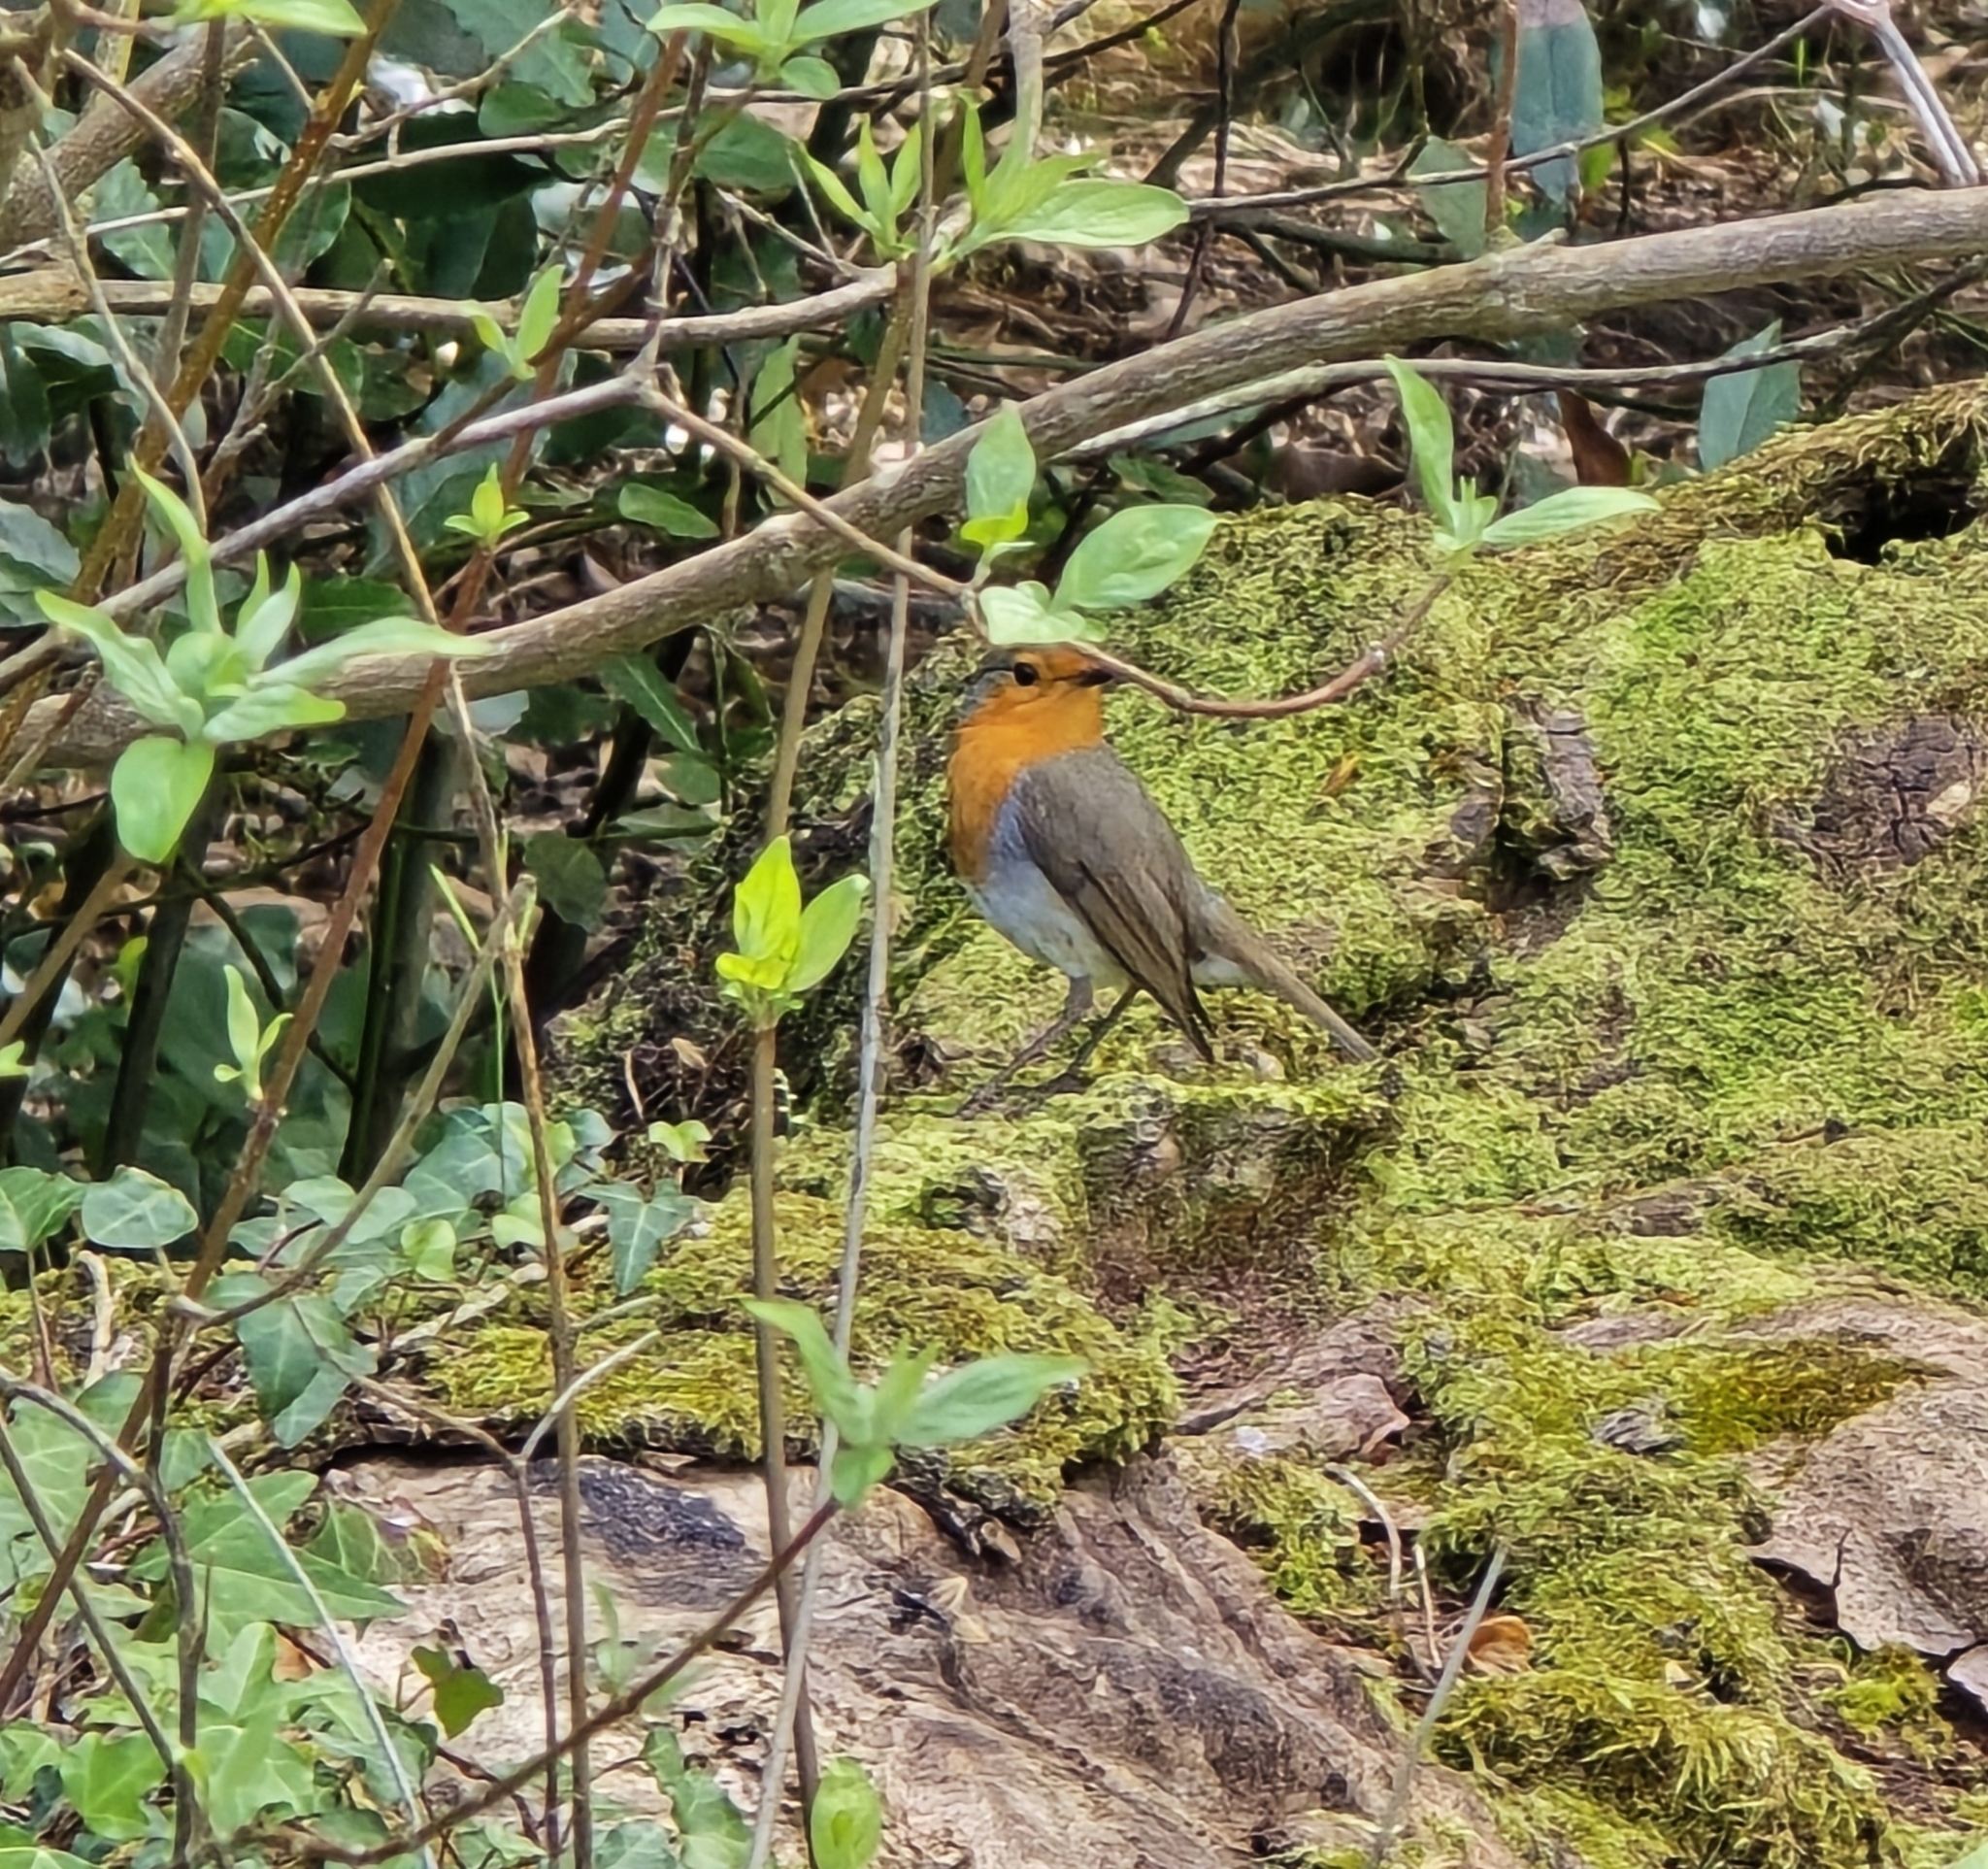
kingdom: Animalia
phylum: Chordata
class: Aves
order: Passeriformes
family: Muscicapidae
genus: Erithacus
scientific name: Erithacus rubecula
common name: European robin
